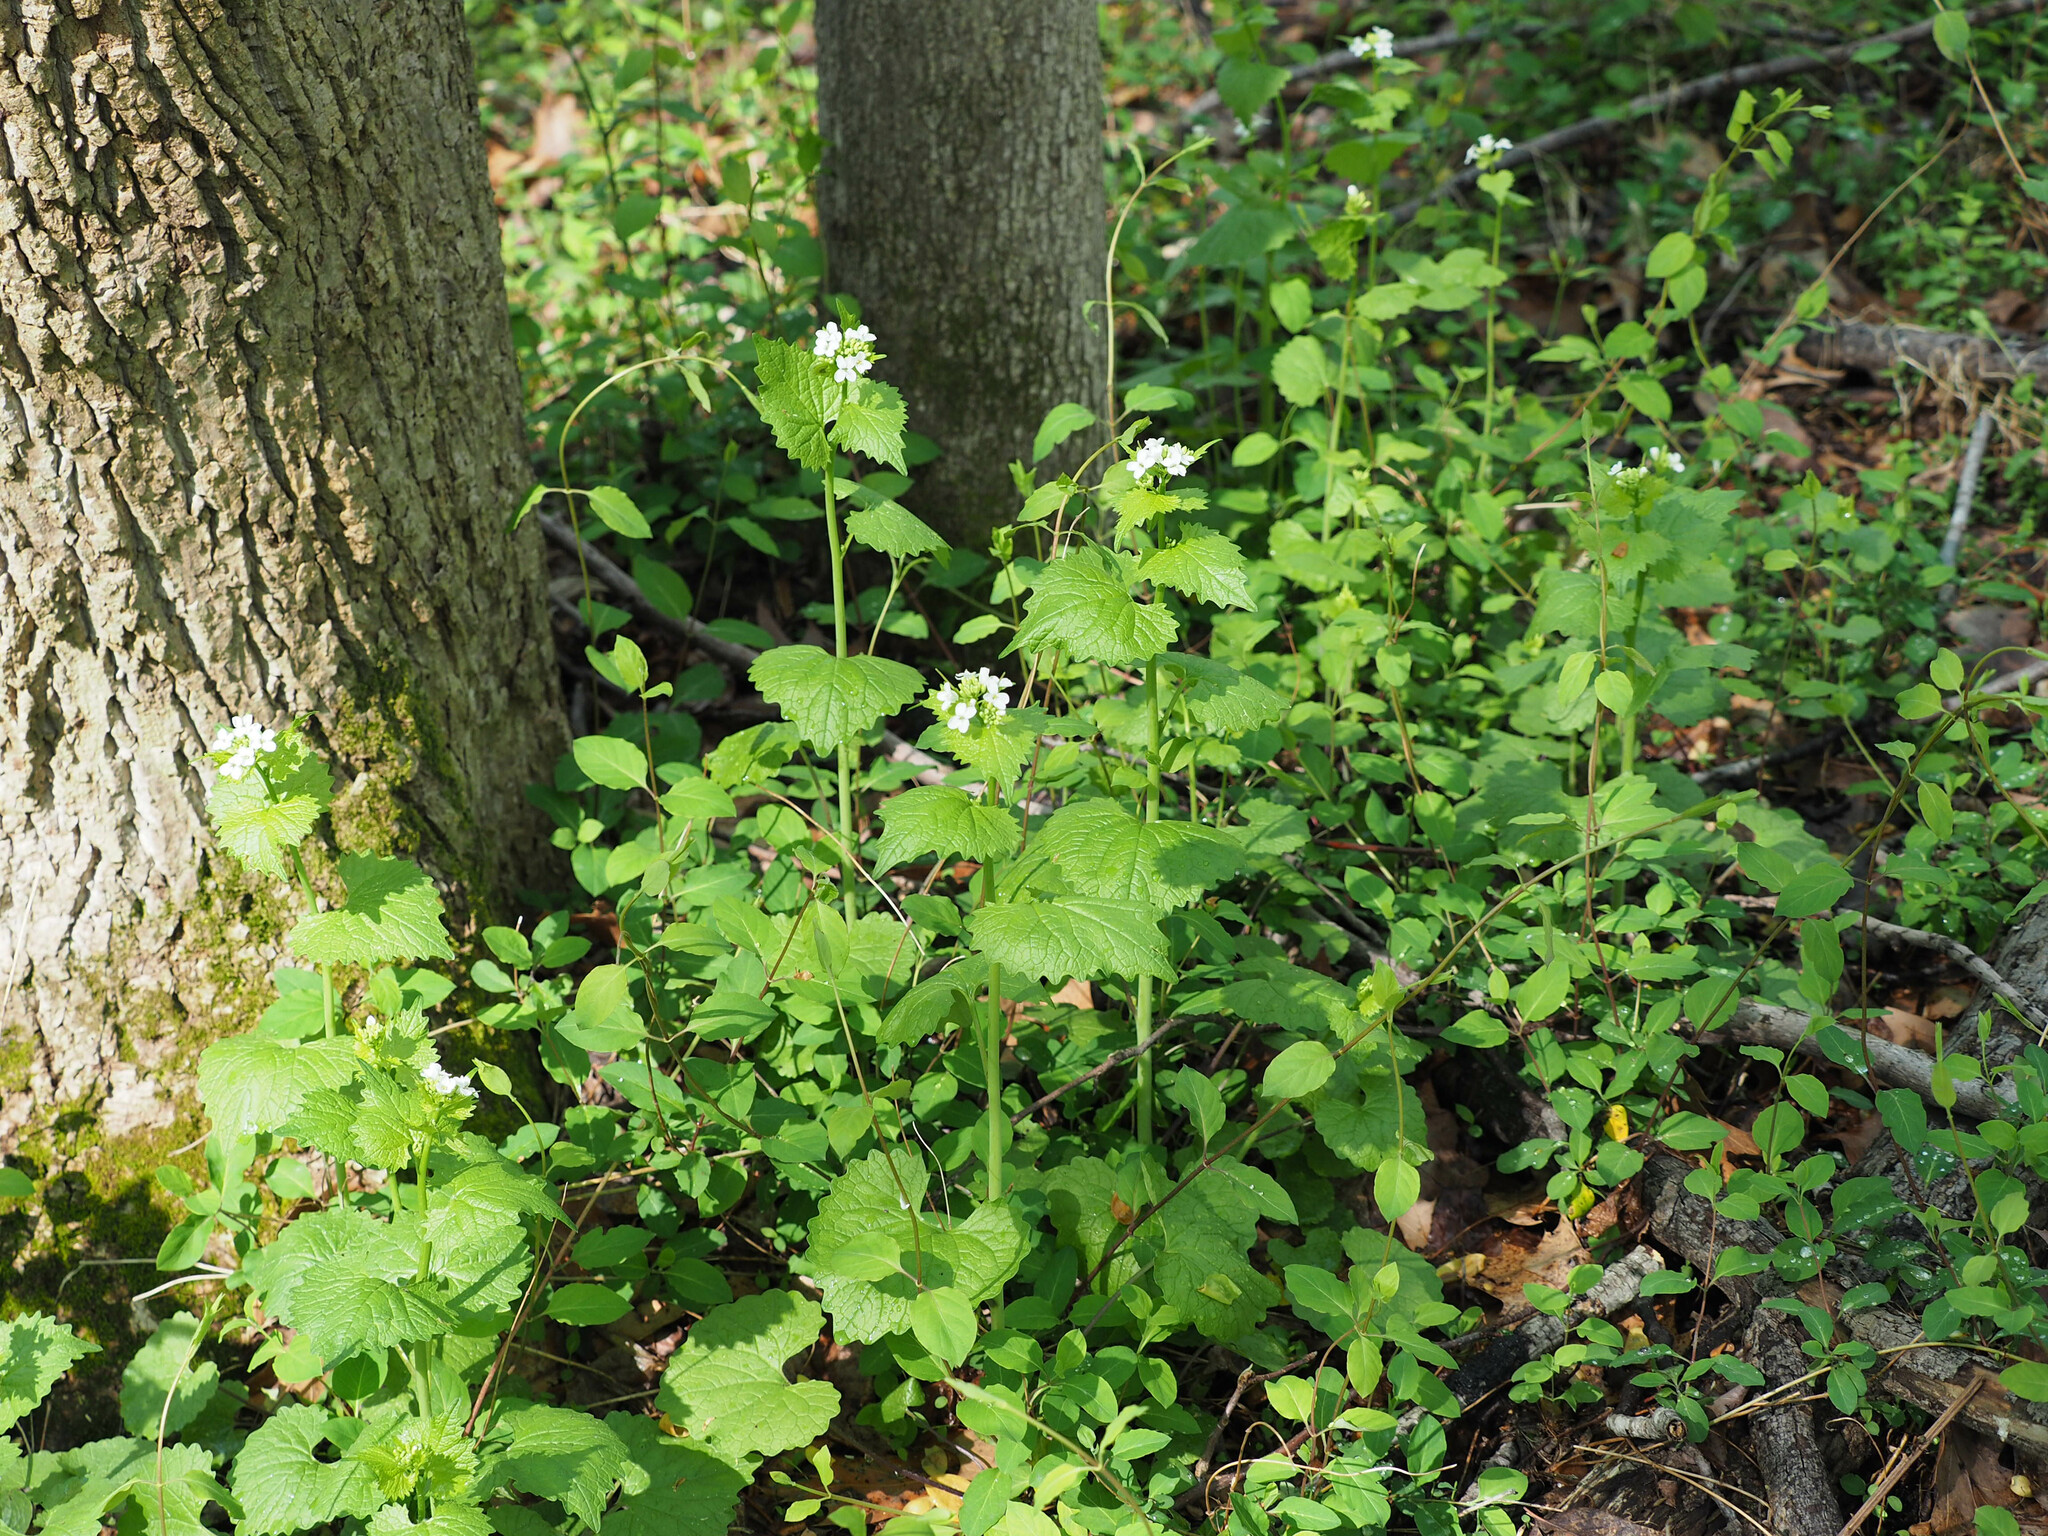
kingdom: Plantae
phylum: Tracheophyta
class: Magnoliopsida
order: Brassicales
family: Brassicaceae
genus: Alliaria
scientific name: Alliaria petiolata
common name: Garlic mustard
